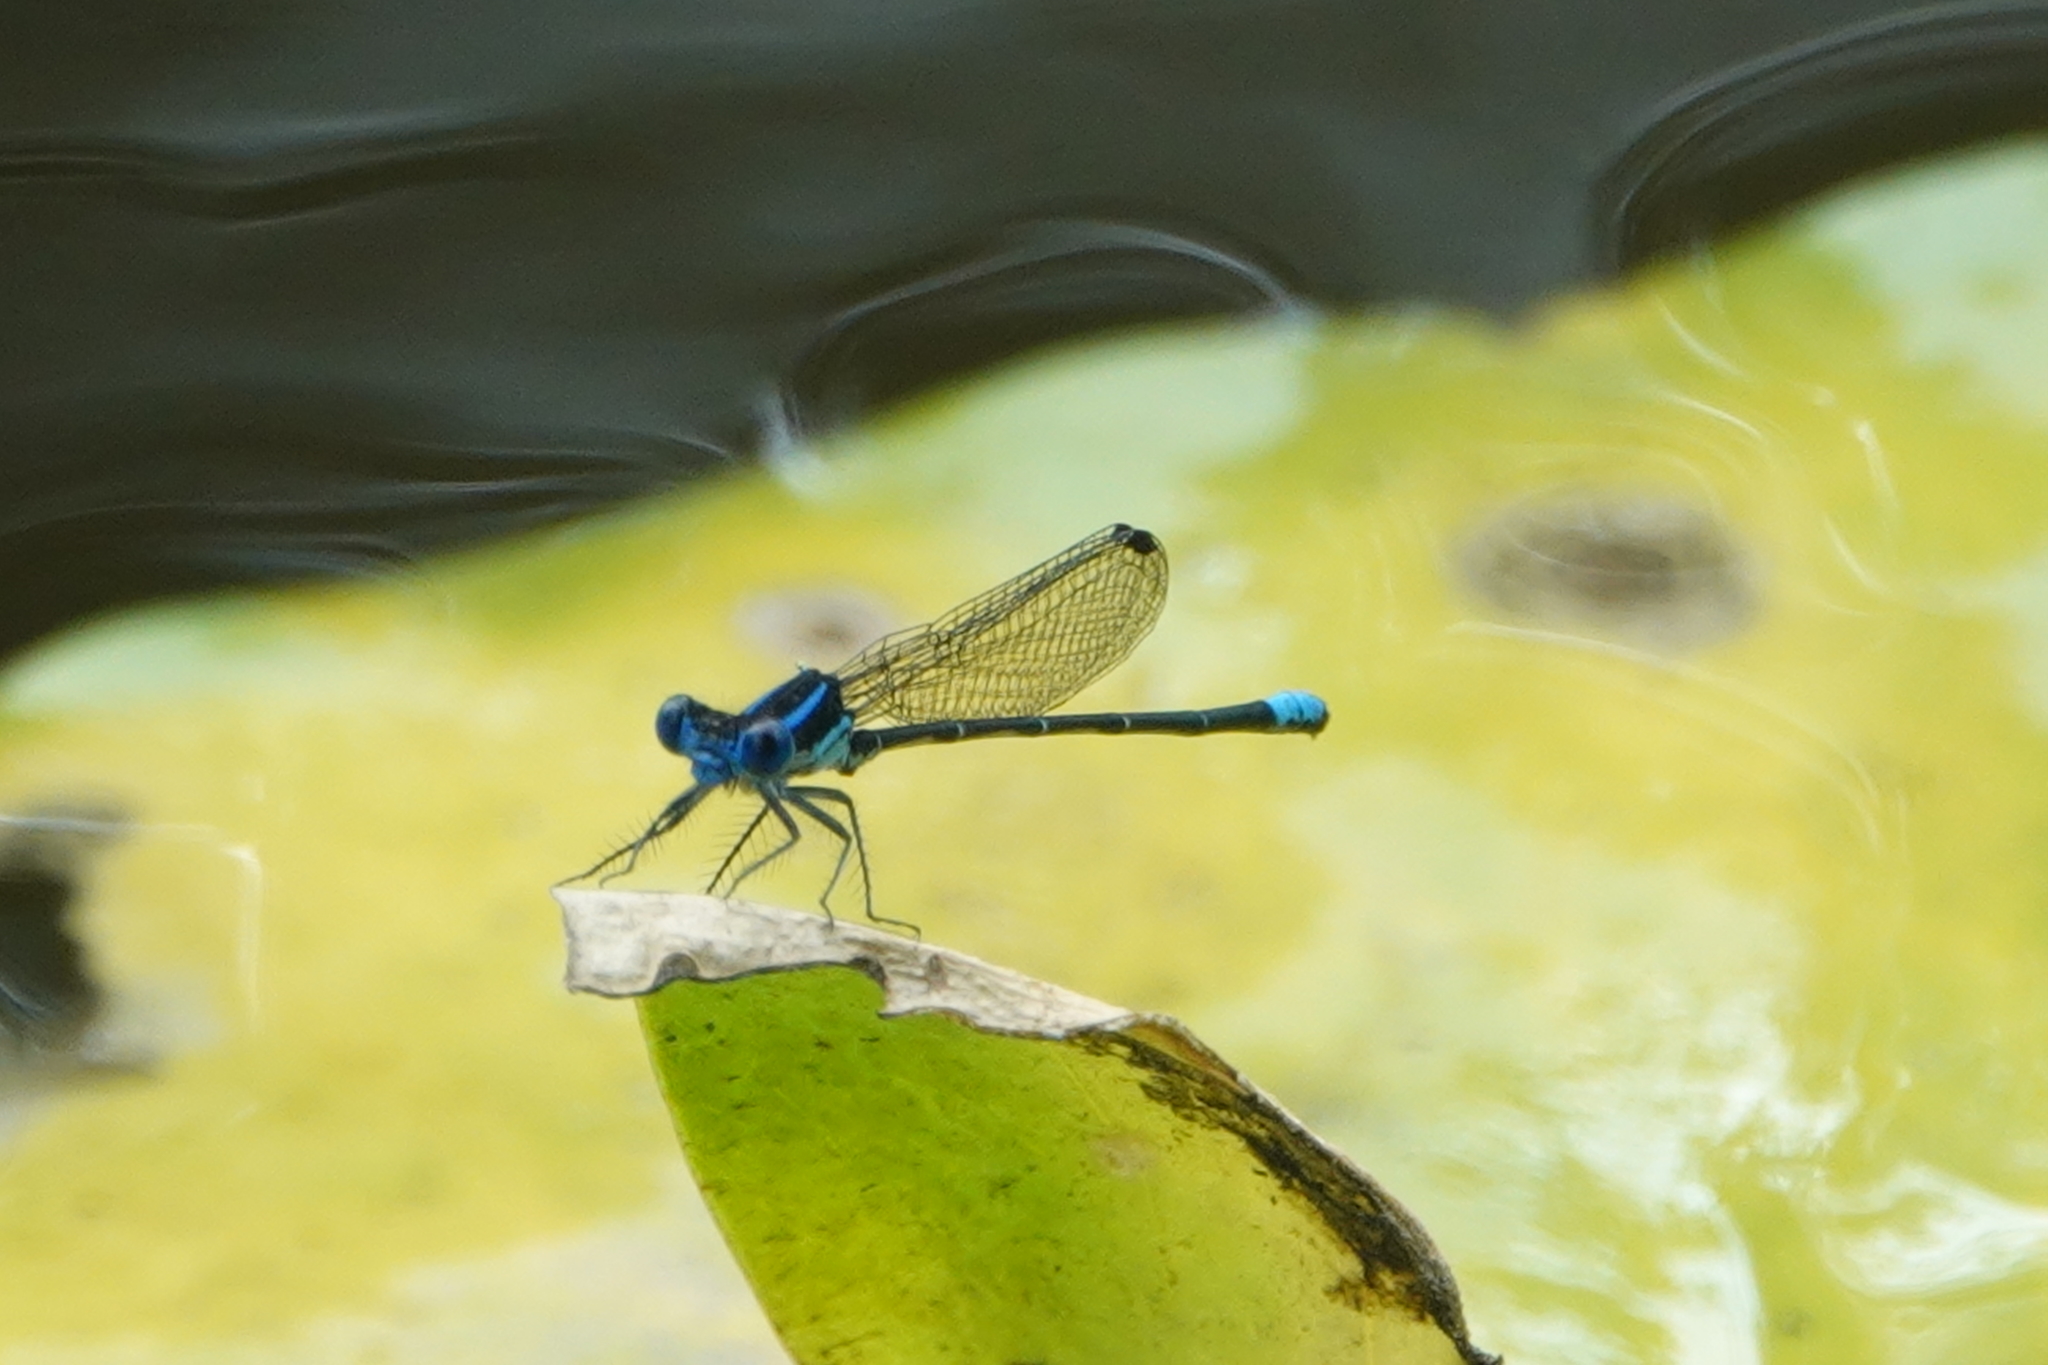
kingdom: Animalia
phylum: Arthropoda
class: Insecta
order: Odonata
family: Coenagrionidae
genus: Argia
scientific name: Argia sedula
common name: Blue-ringed dancer
